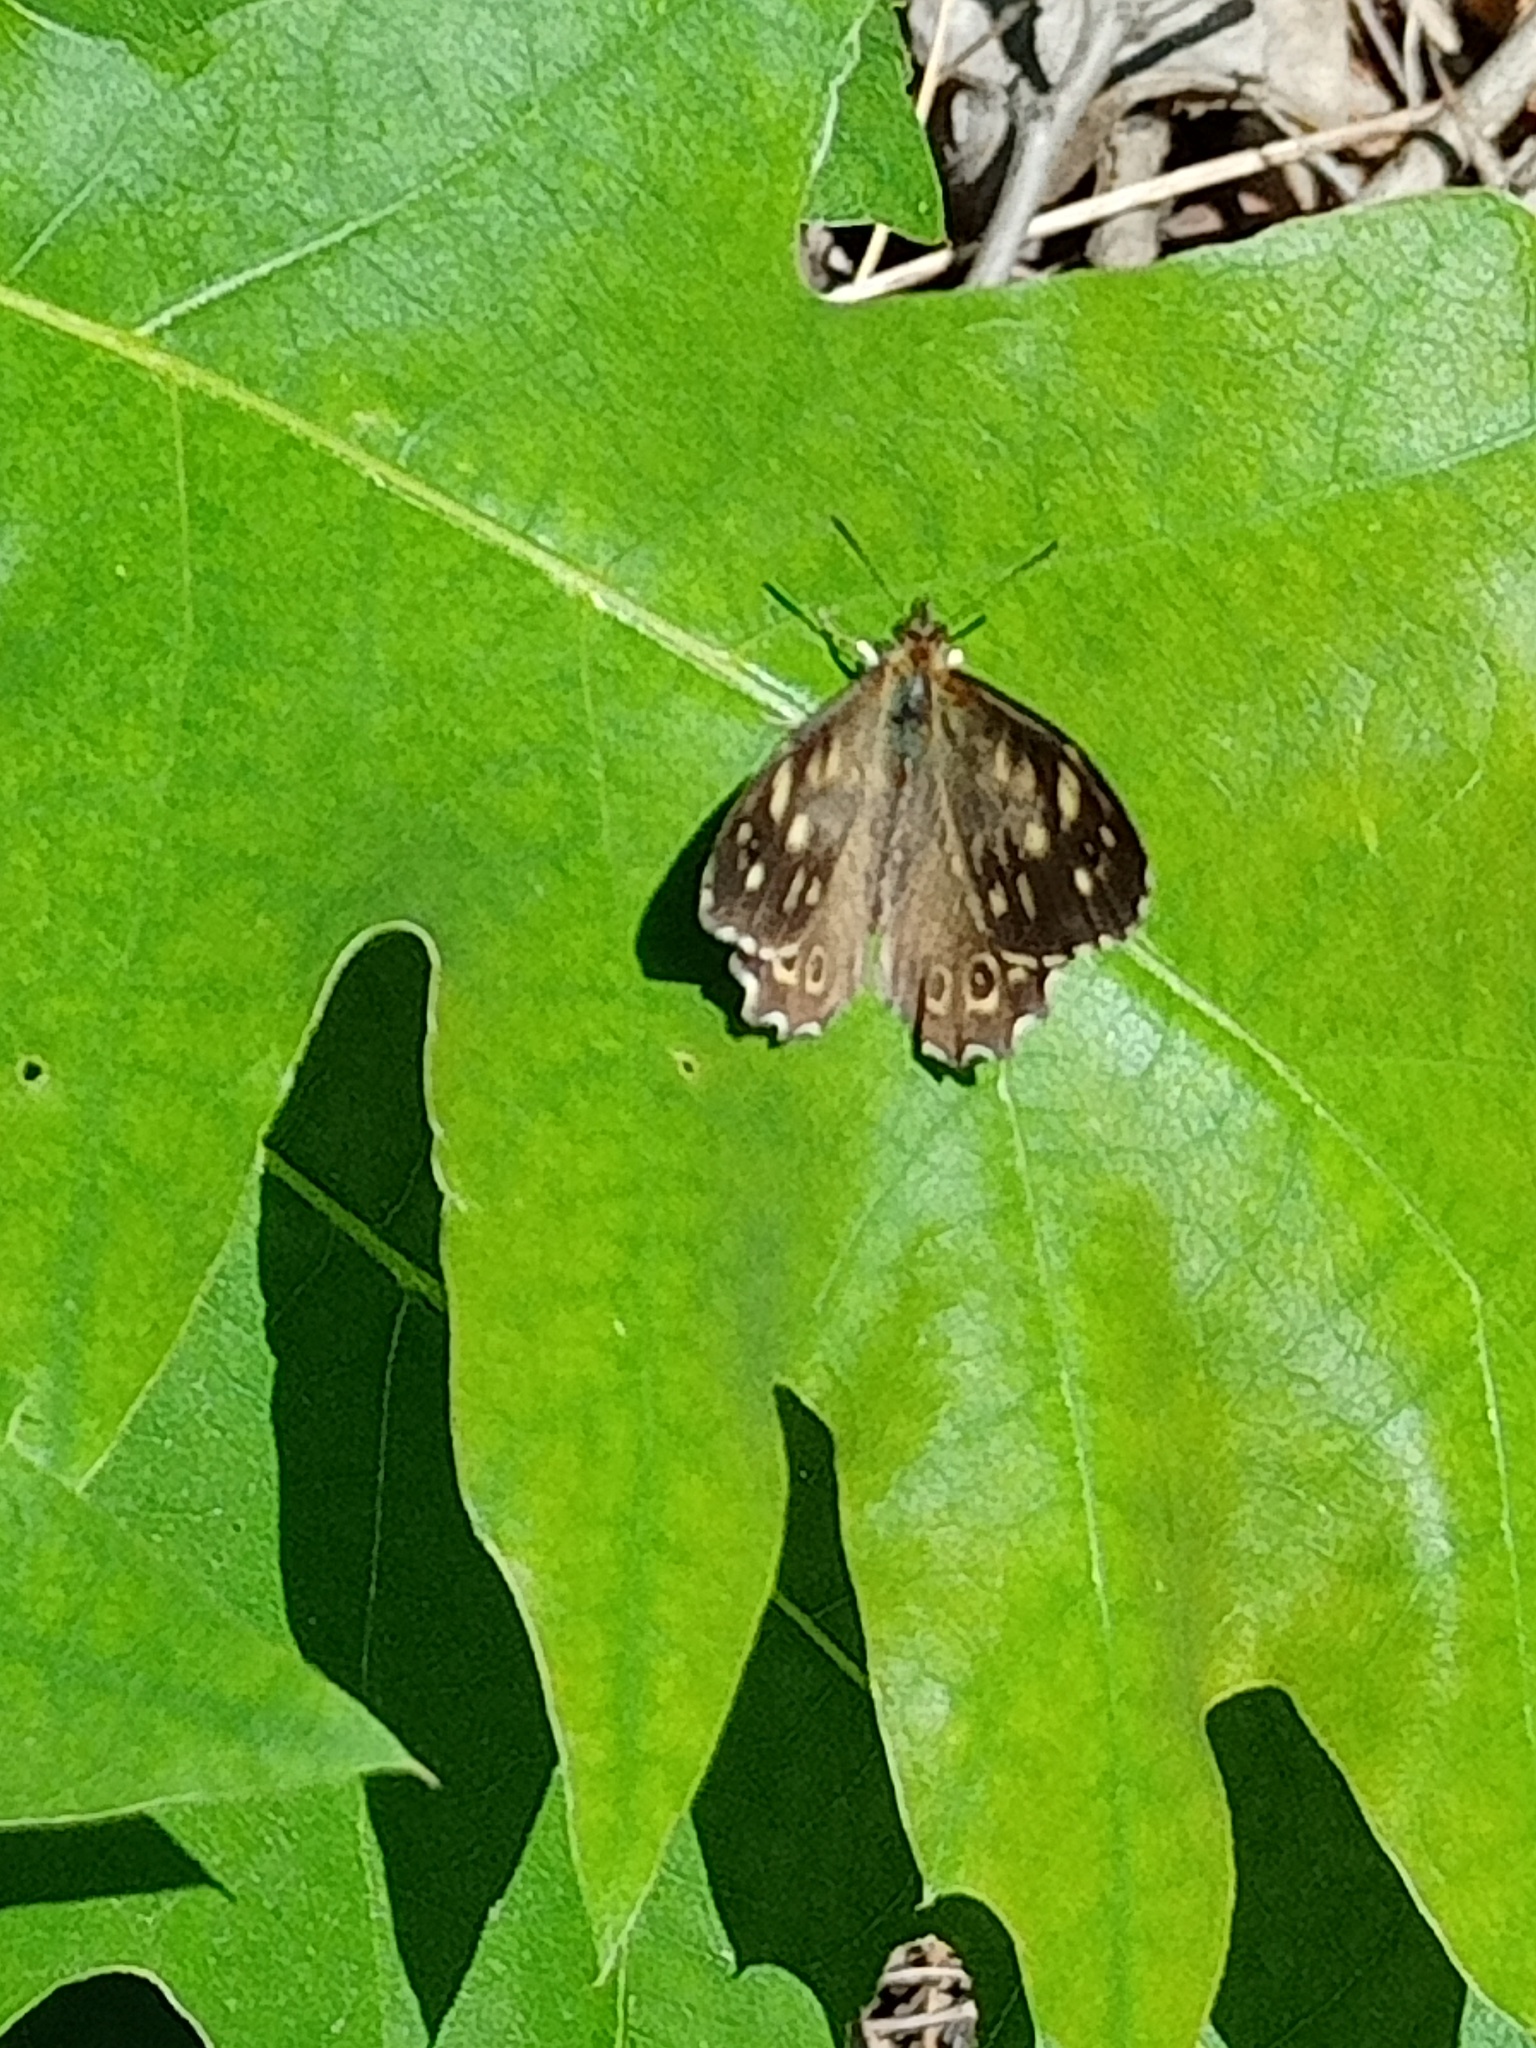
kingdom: Animalia
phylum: Arthropoda
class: Insecta
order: Lepidoptera
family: Nymphalidae
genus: Pararge
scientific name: Pararge aegeria
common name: Speckled wood
